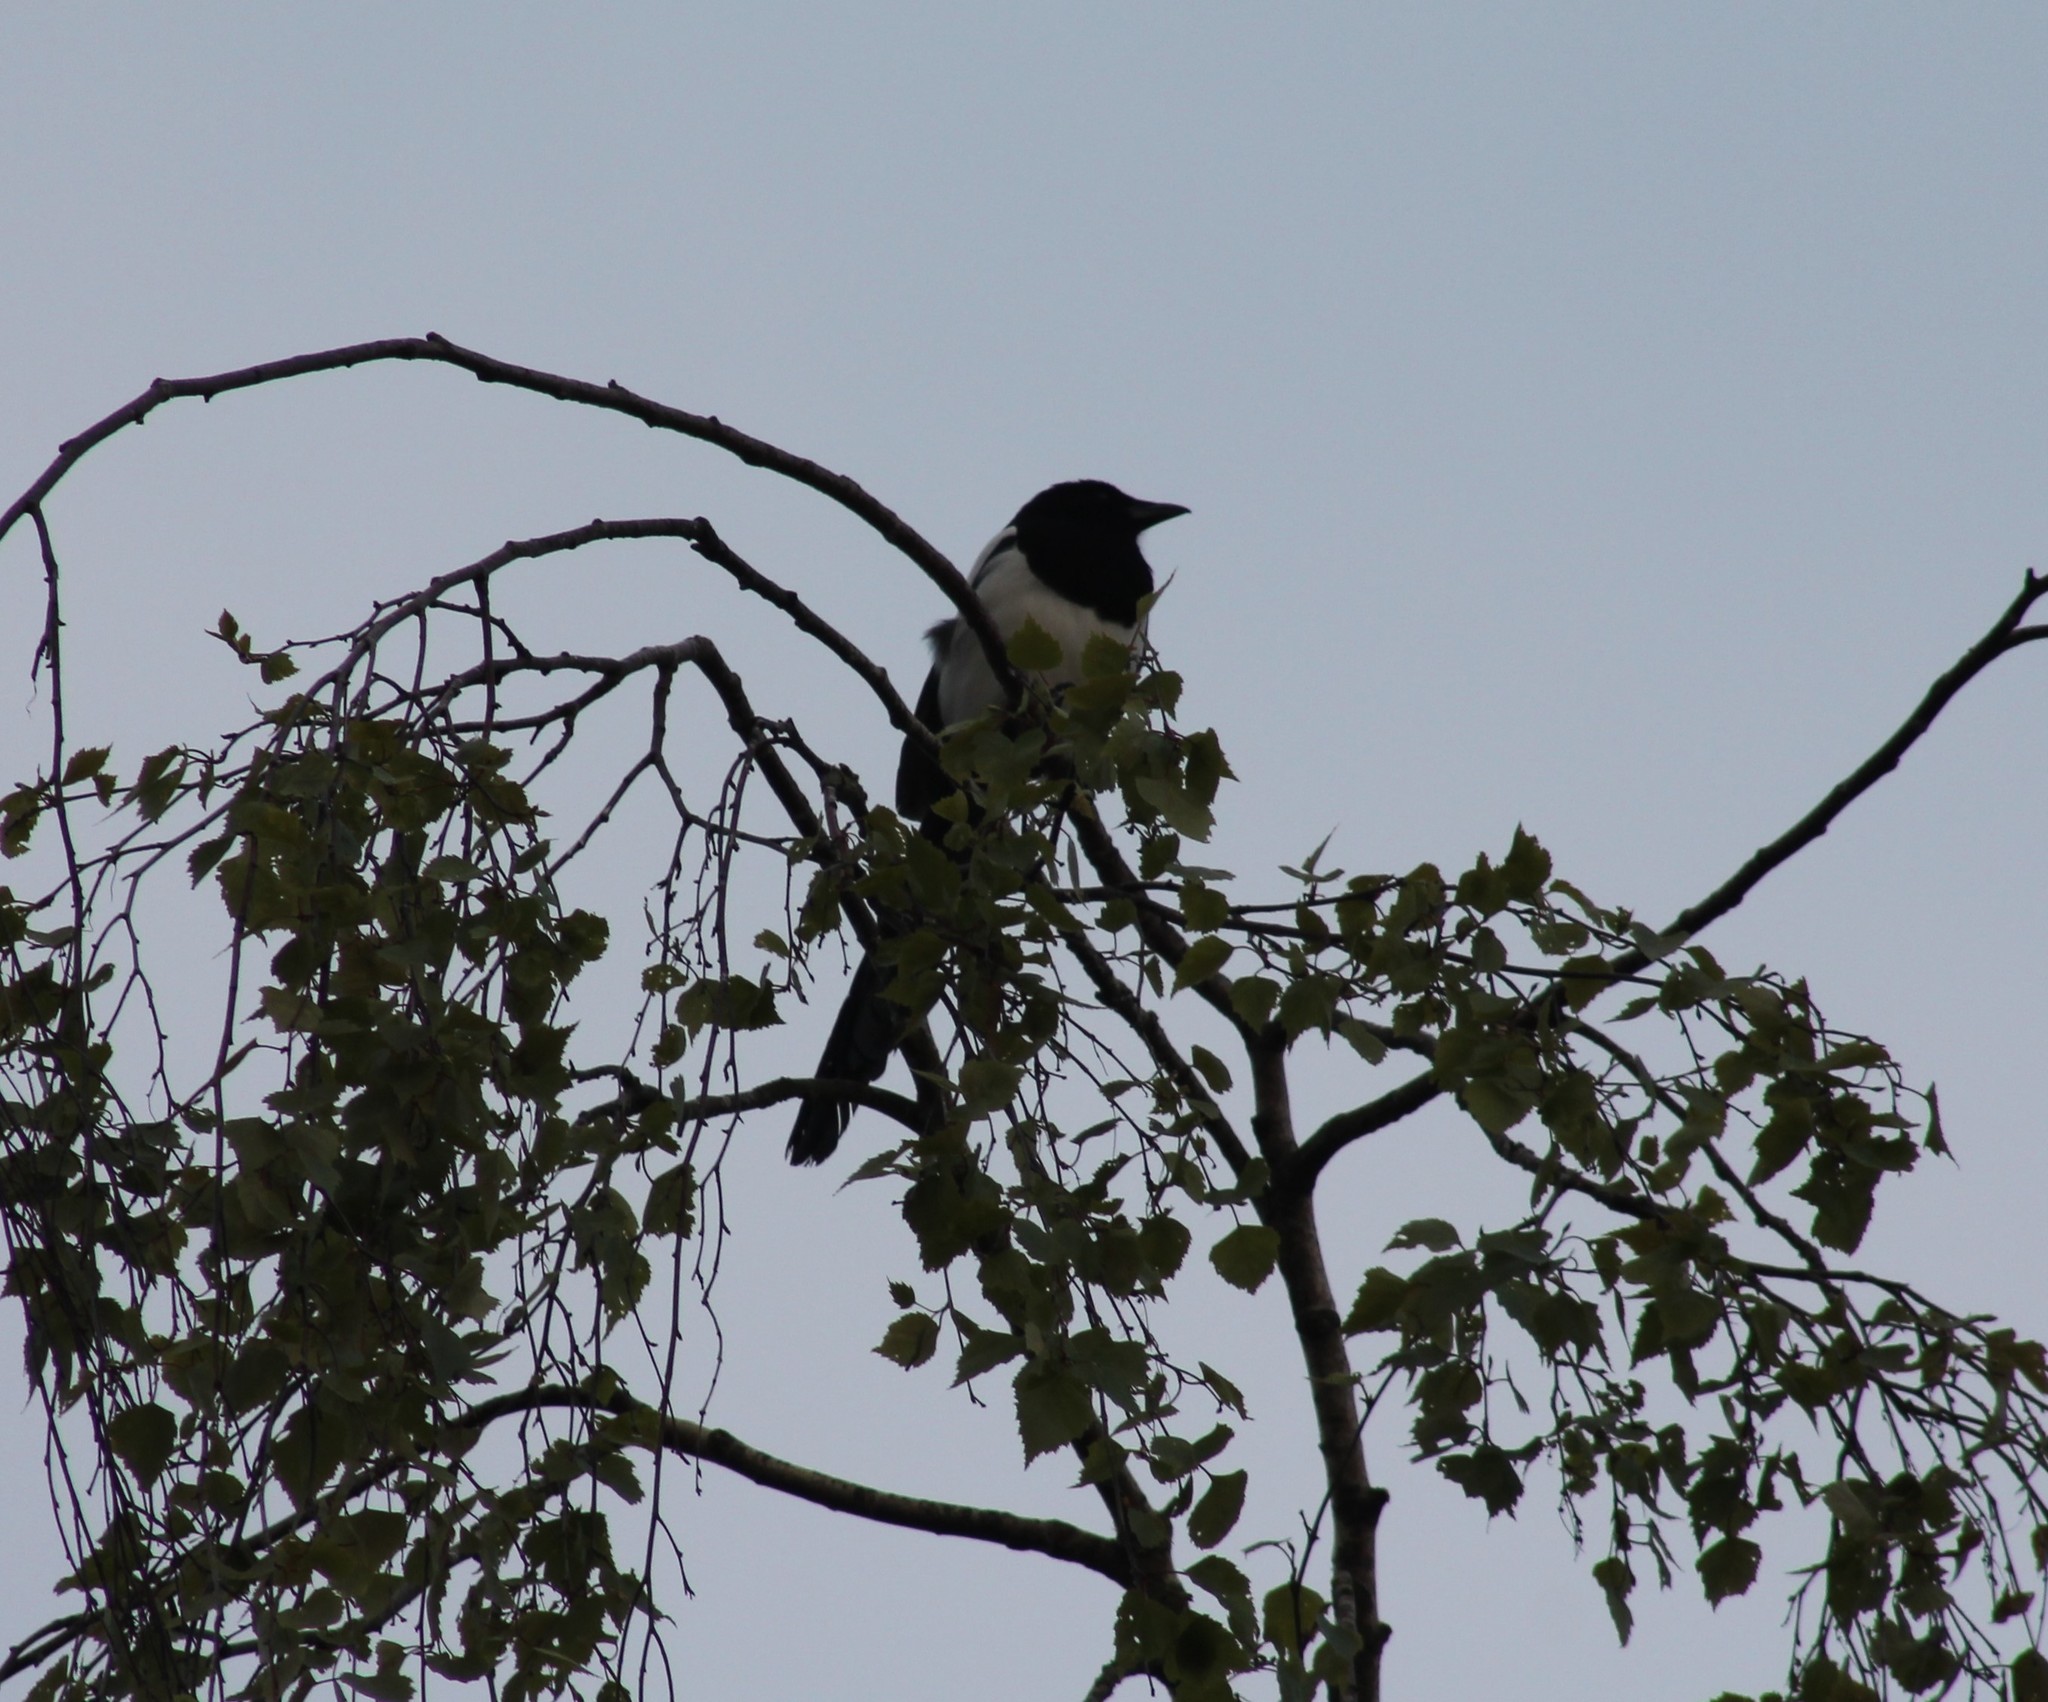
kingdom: Animalia
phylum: Chordata
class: Aves
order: Passeriformes
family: Corvidae
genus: Pica
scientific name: Pica pica
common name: Eurasian magpie
